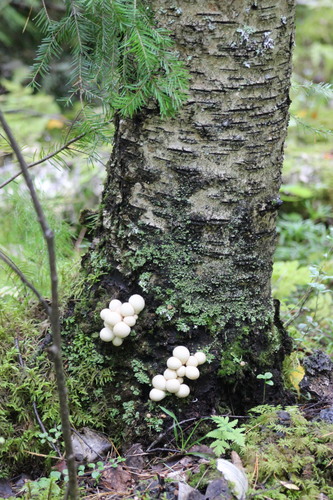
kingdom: Fungi
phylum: Basidiomycota
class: Agaricomycetes
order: Agaricales
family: Lycoperdaceae
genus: Apioperdon
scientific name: Apioperdon pyriforme
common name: Pear-shaped puffball
